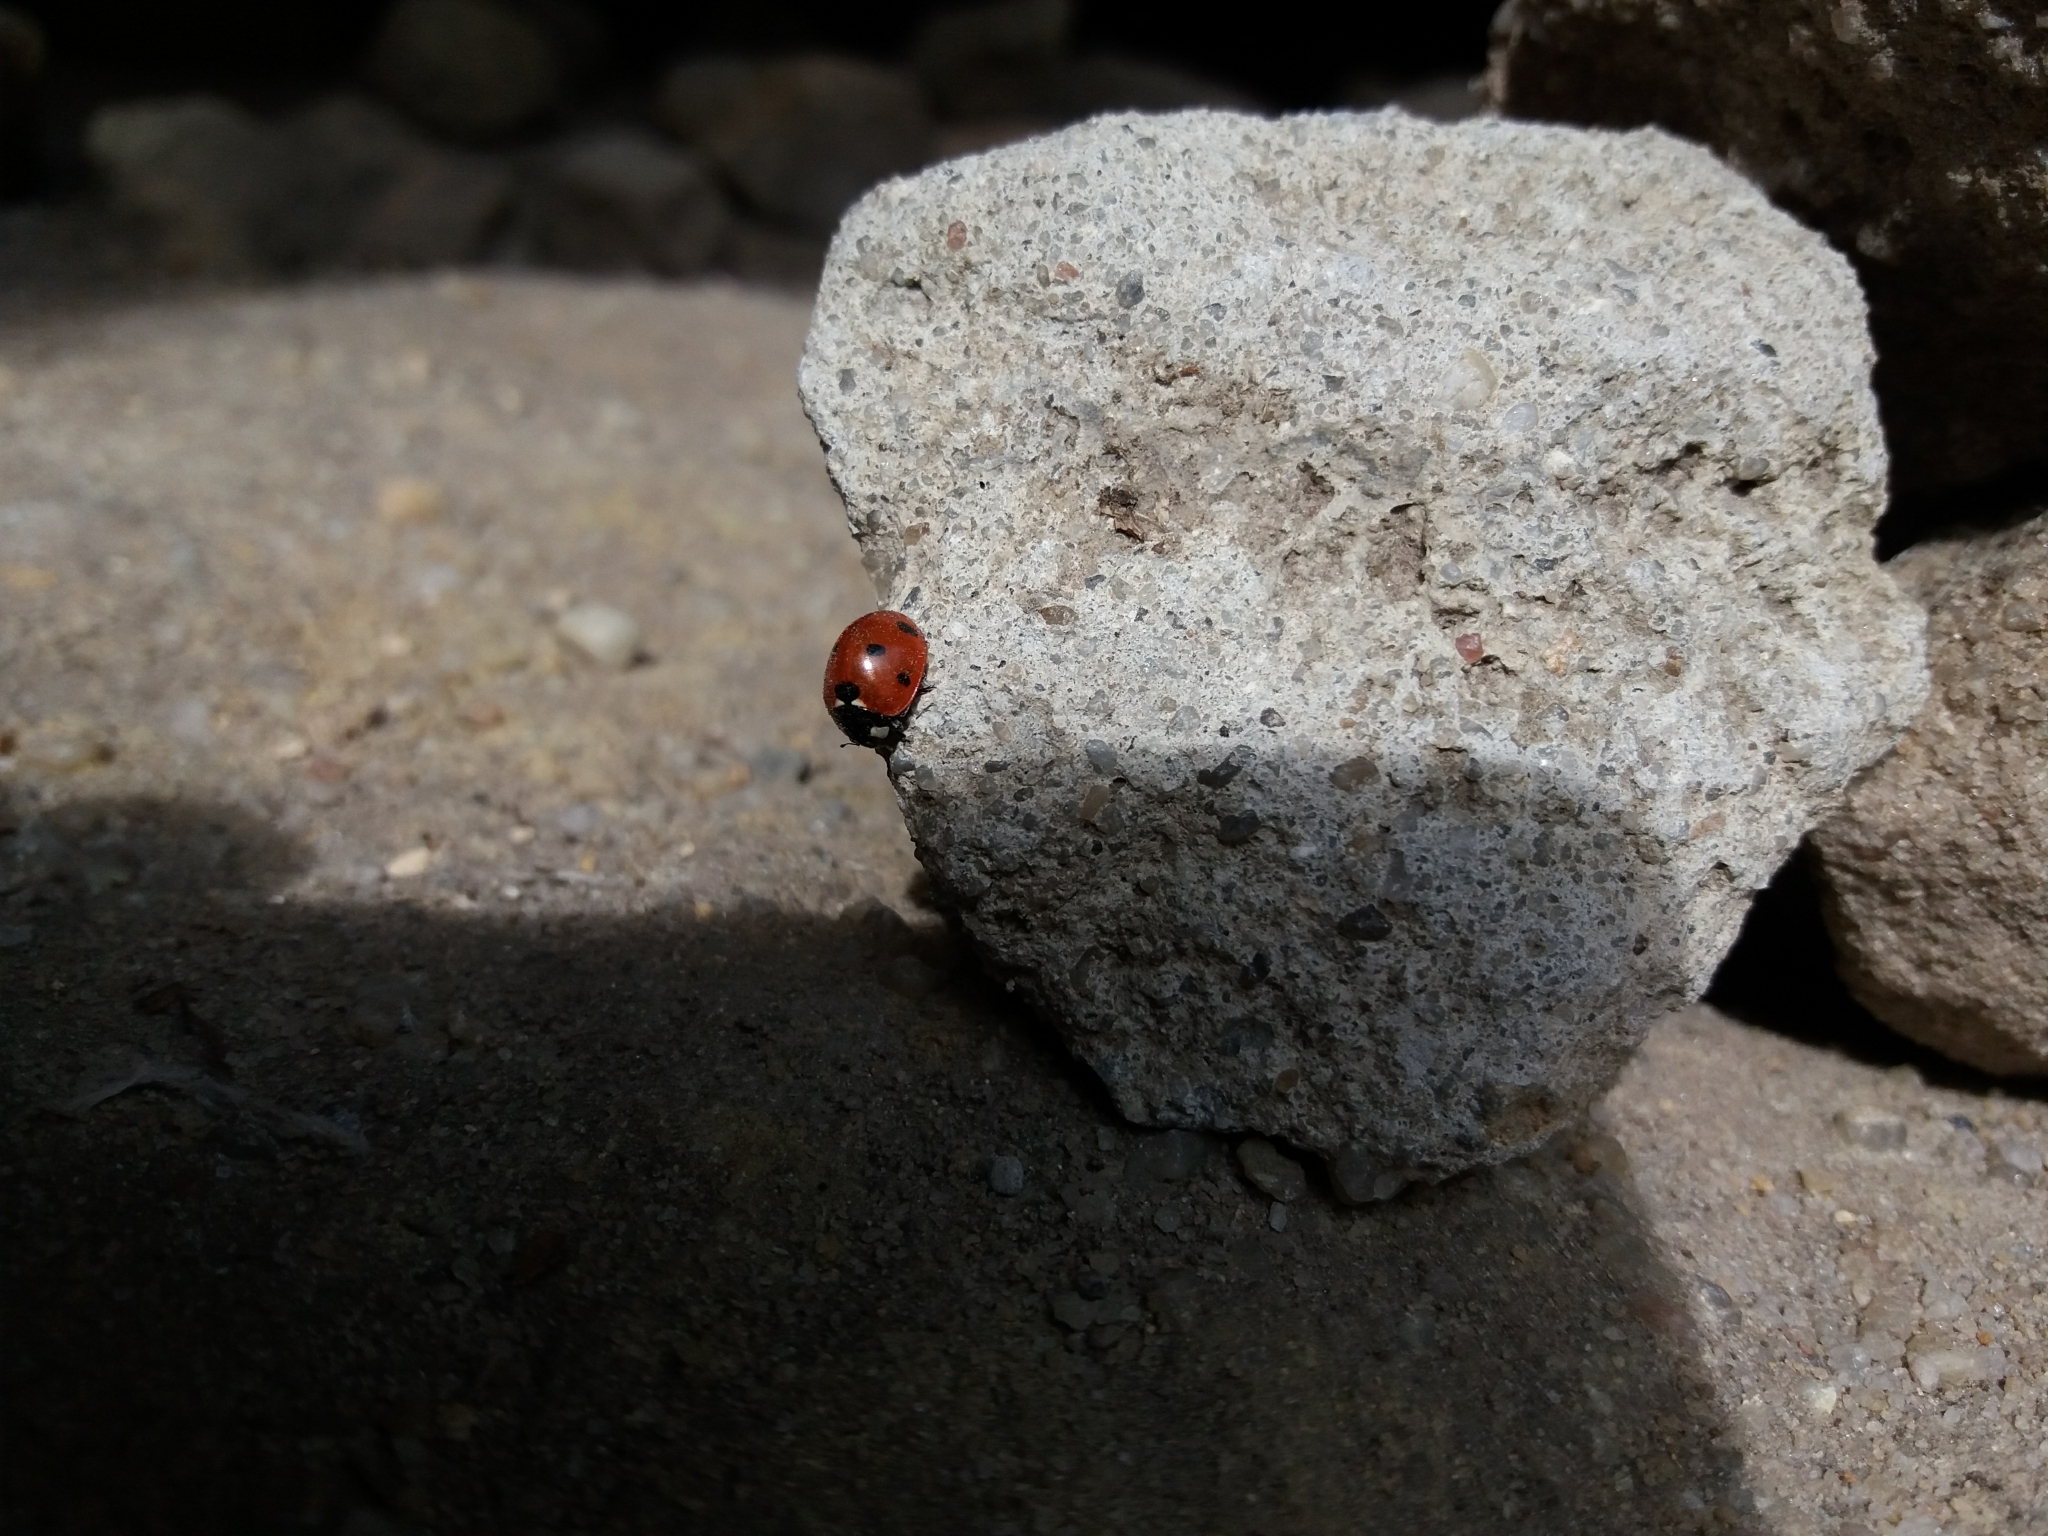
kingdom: Animalia
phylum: Arthropoda
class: Insecta
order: Coleoptera
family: Coccinellidae
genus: Coccinella
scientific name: Coccinella septempunctata
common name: Sevenspotted lady beetle
